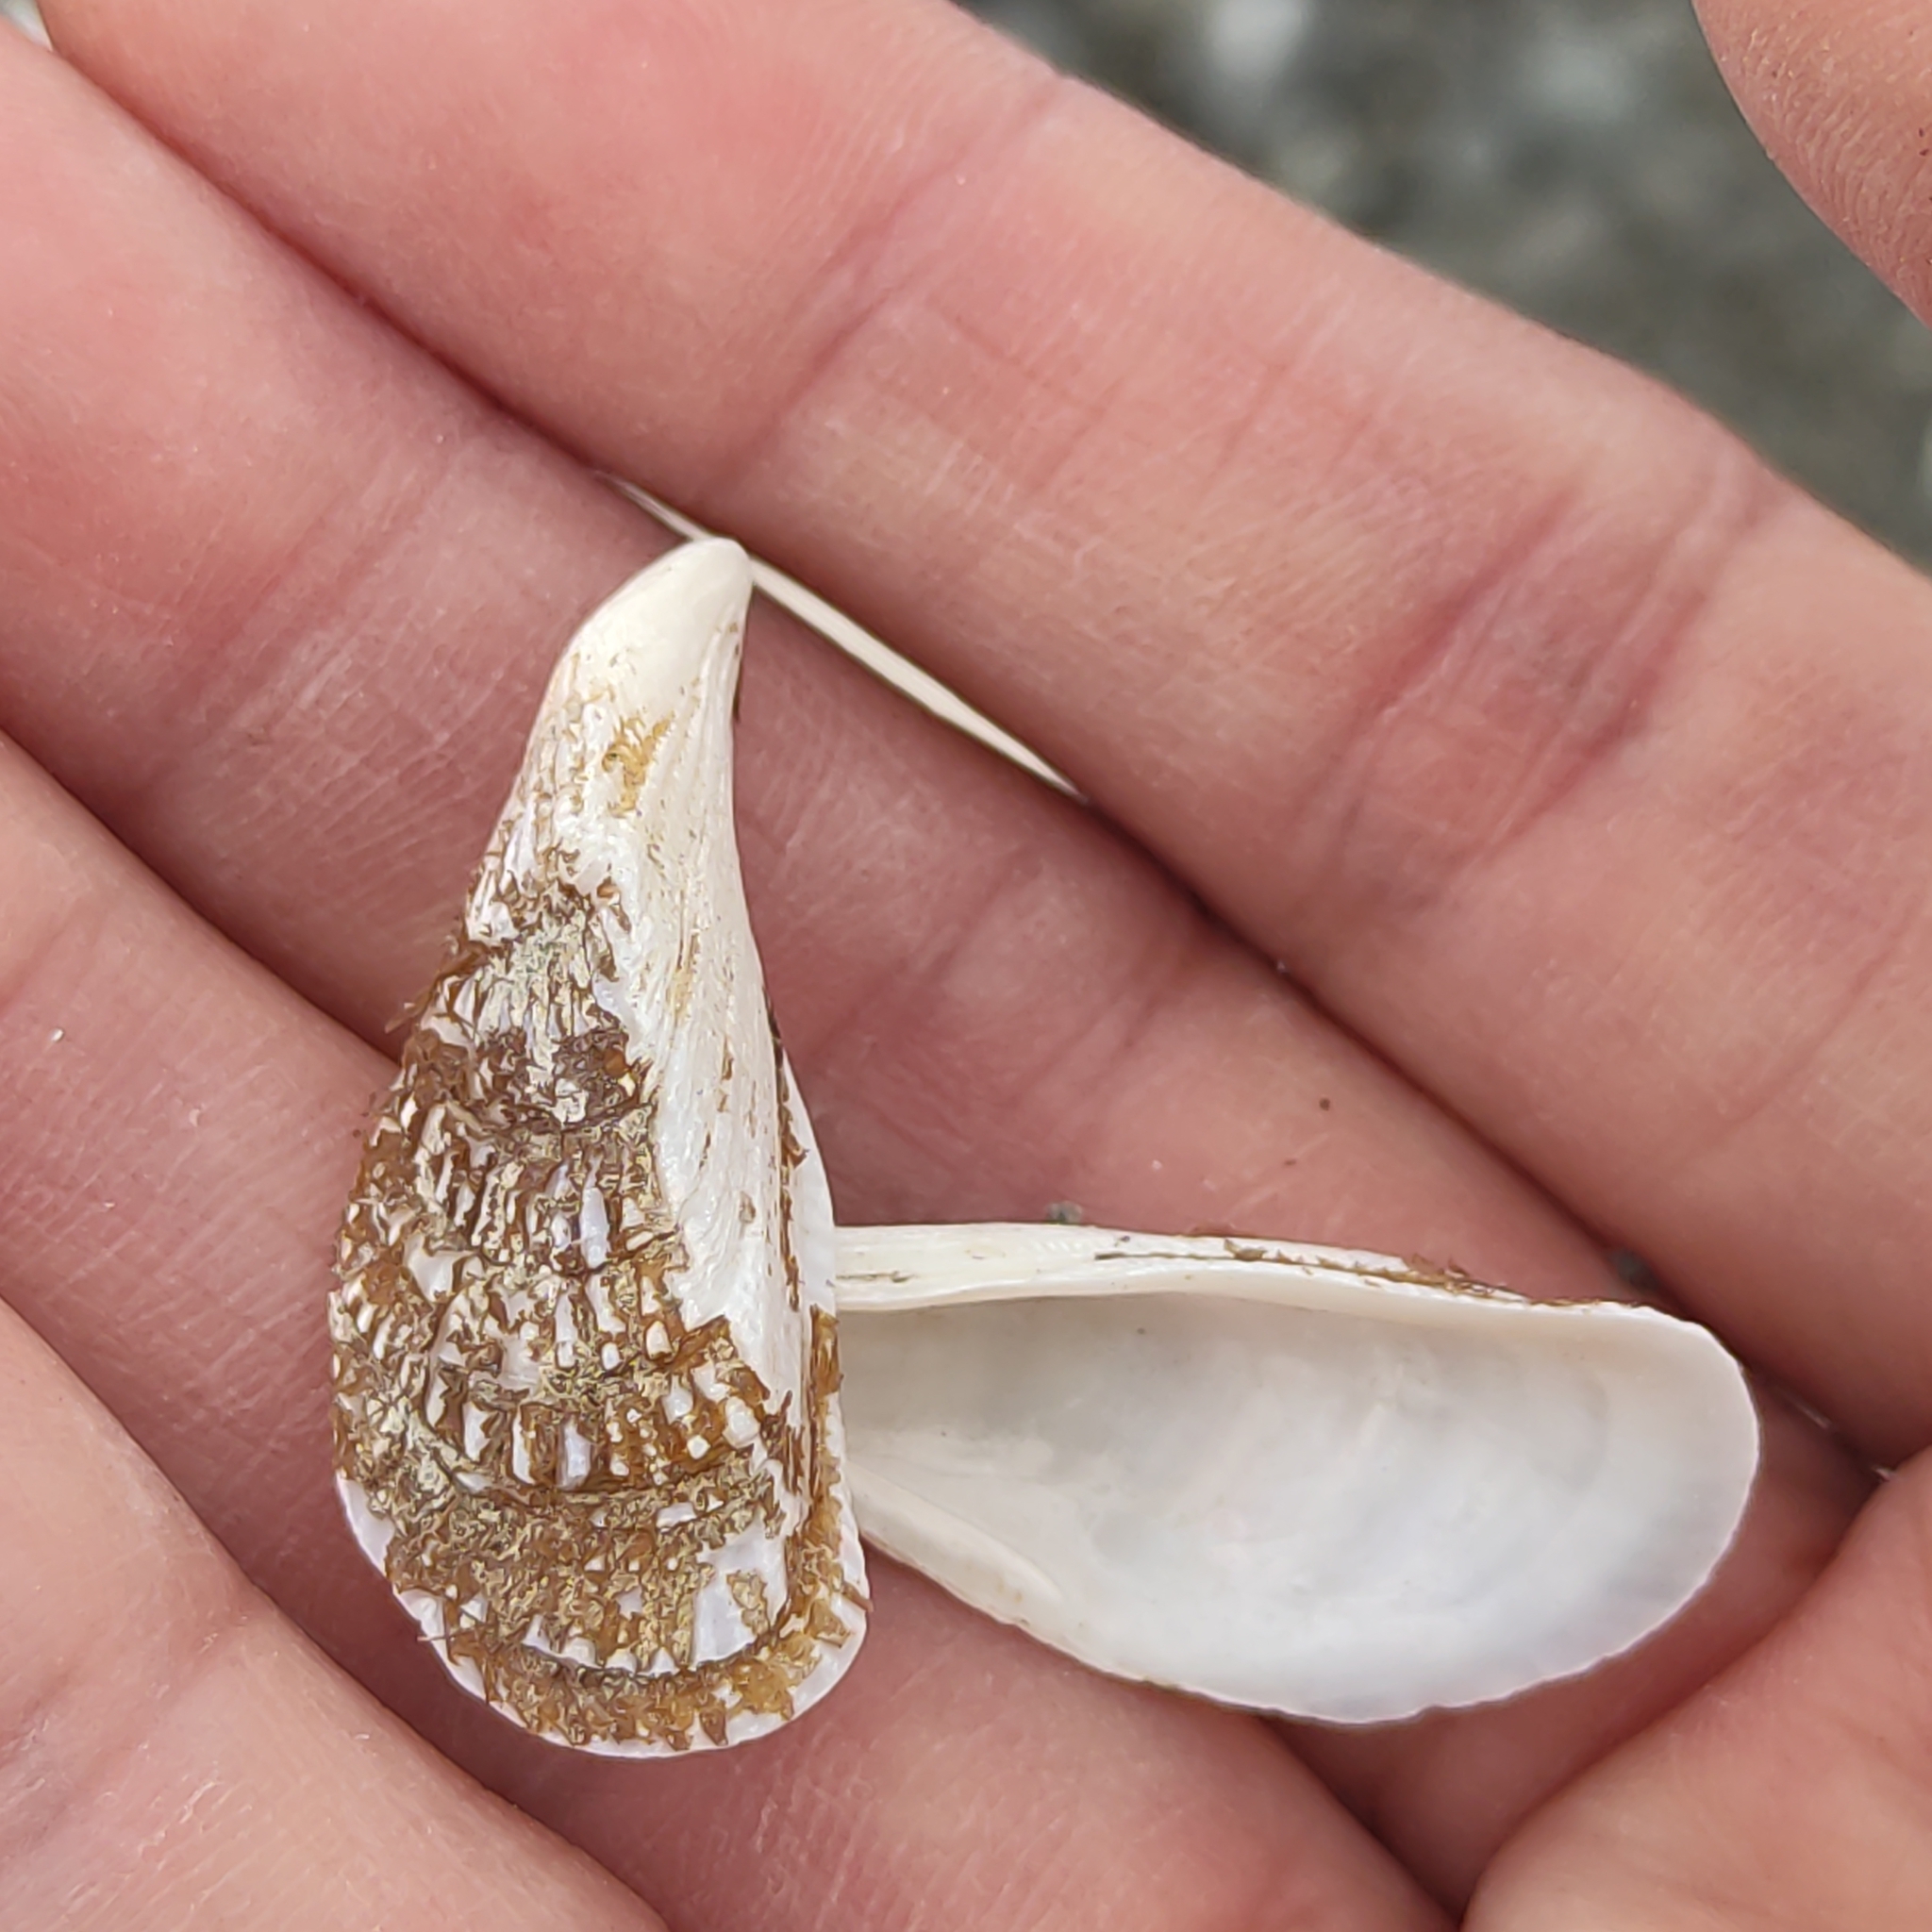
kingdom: Animalia
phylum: Mollusca
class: Bivalvia
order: Mytilida
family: Mytilidae
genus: Aulacomya
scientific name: Aulacomya maoriana
